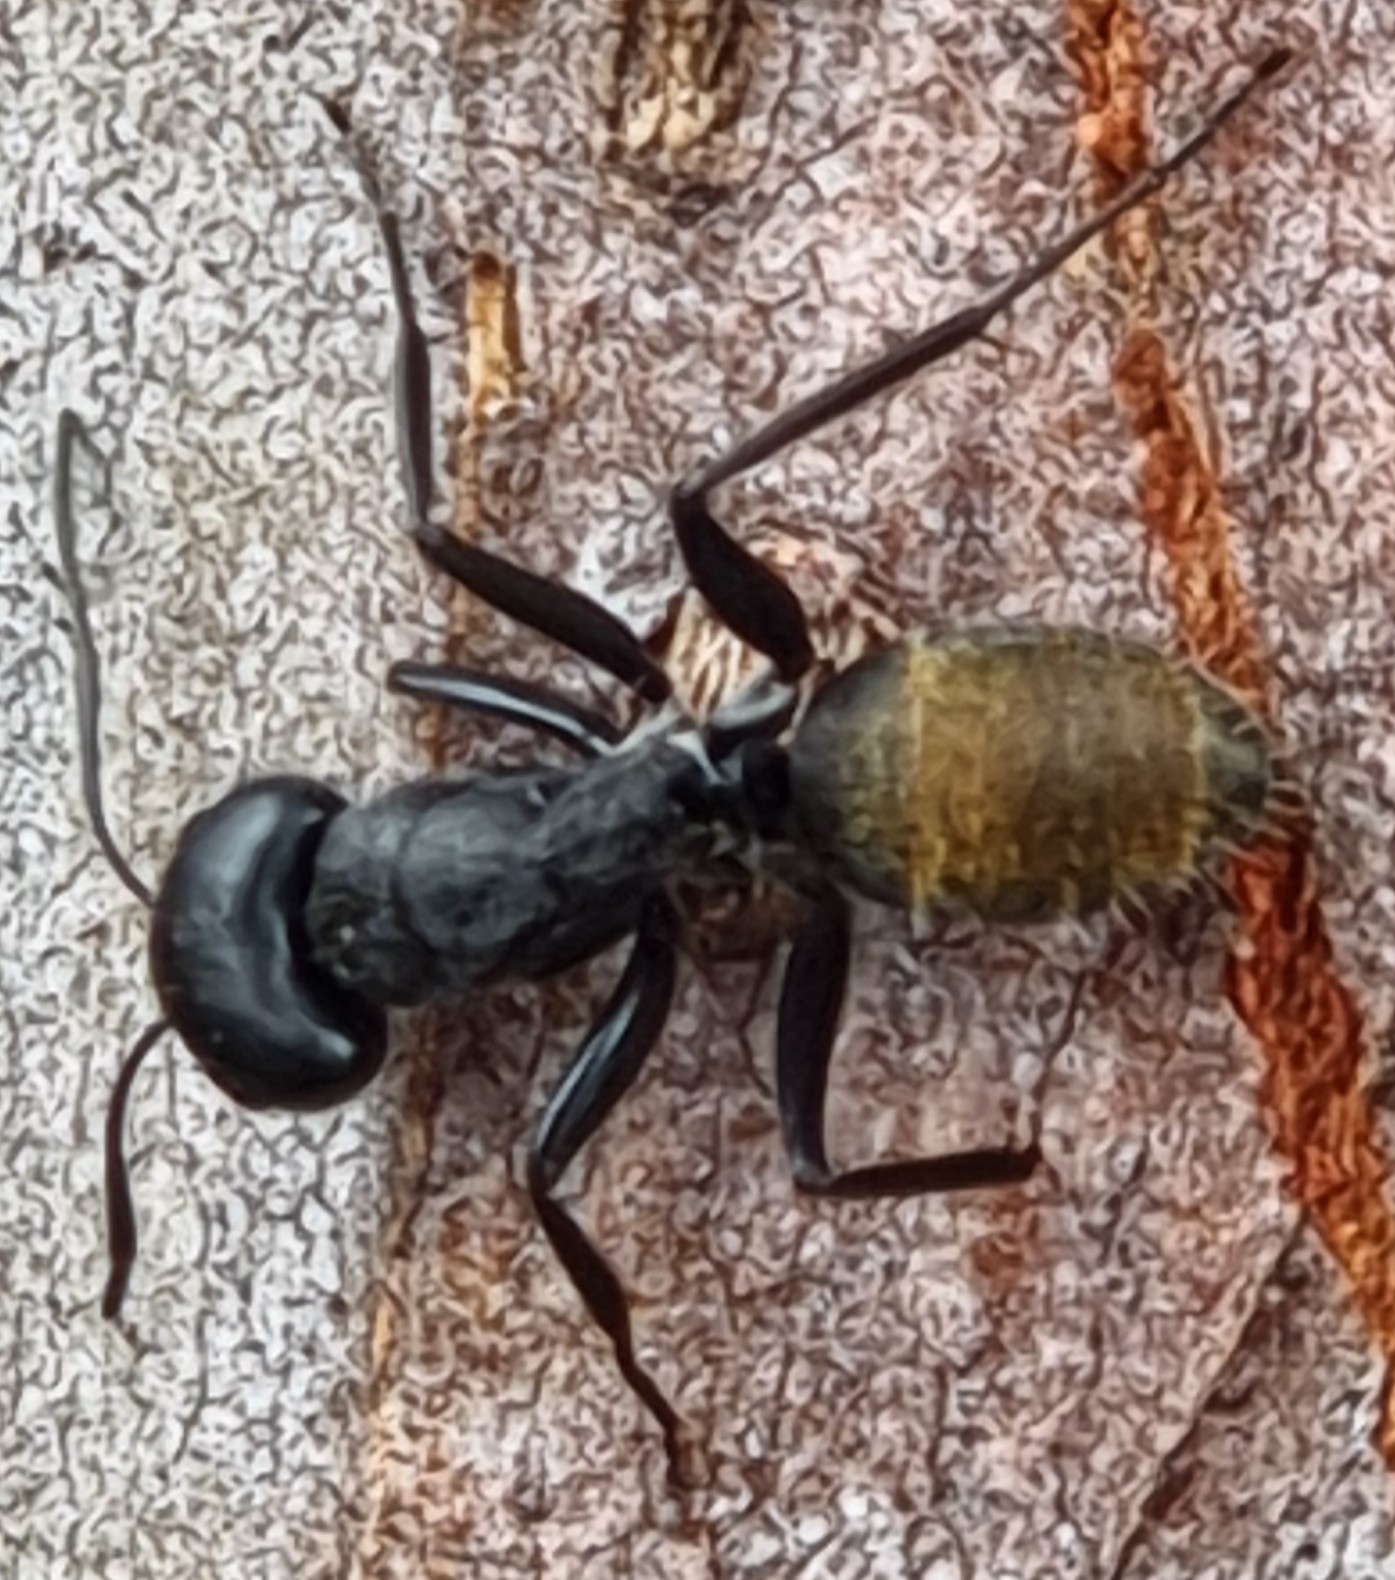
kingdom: Animalia
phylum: Arthropoda
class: Insecta
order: Hymenoptera
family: Formicidae
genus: Camponotus
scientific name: Camponotus aeneopilosus
